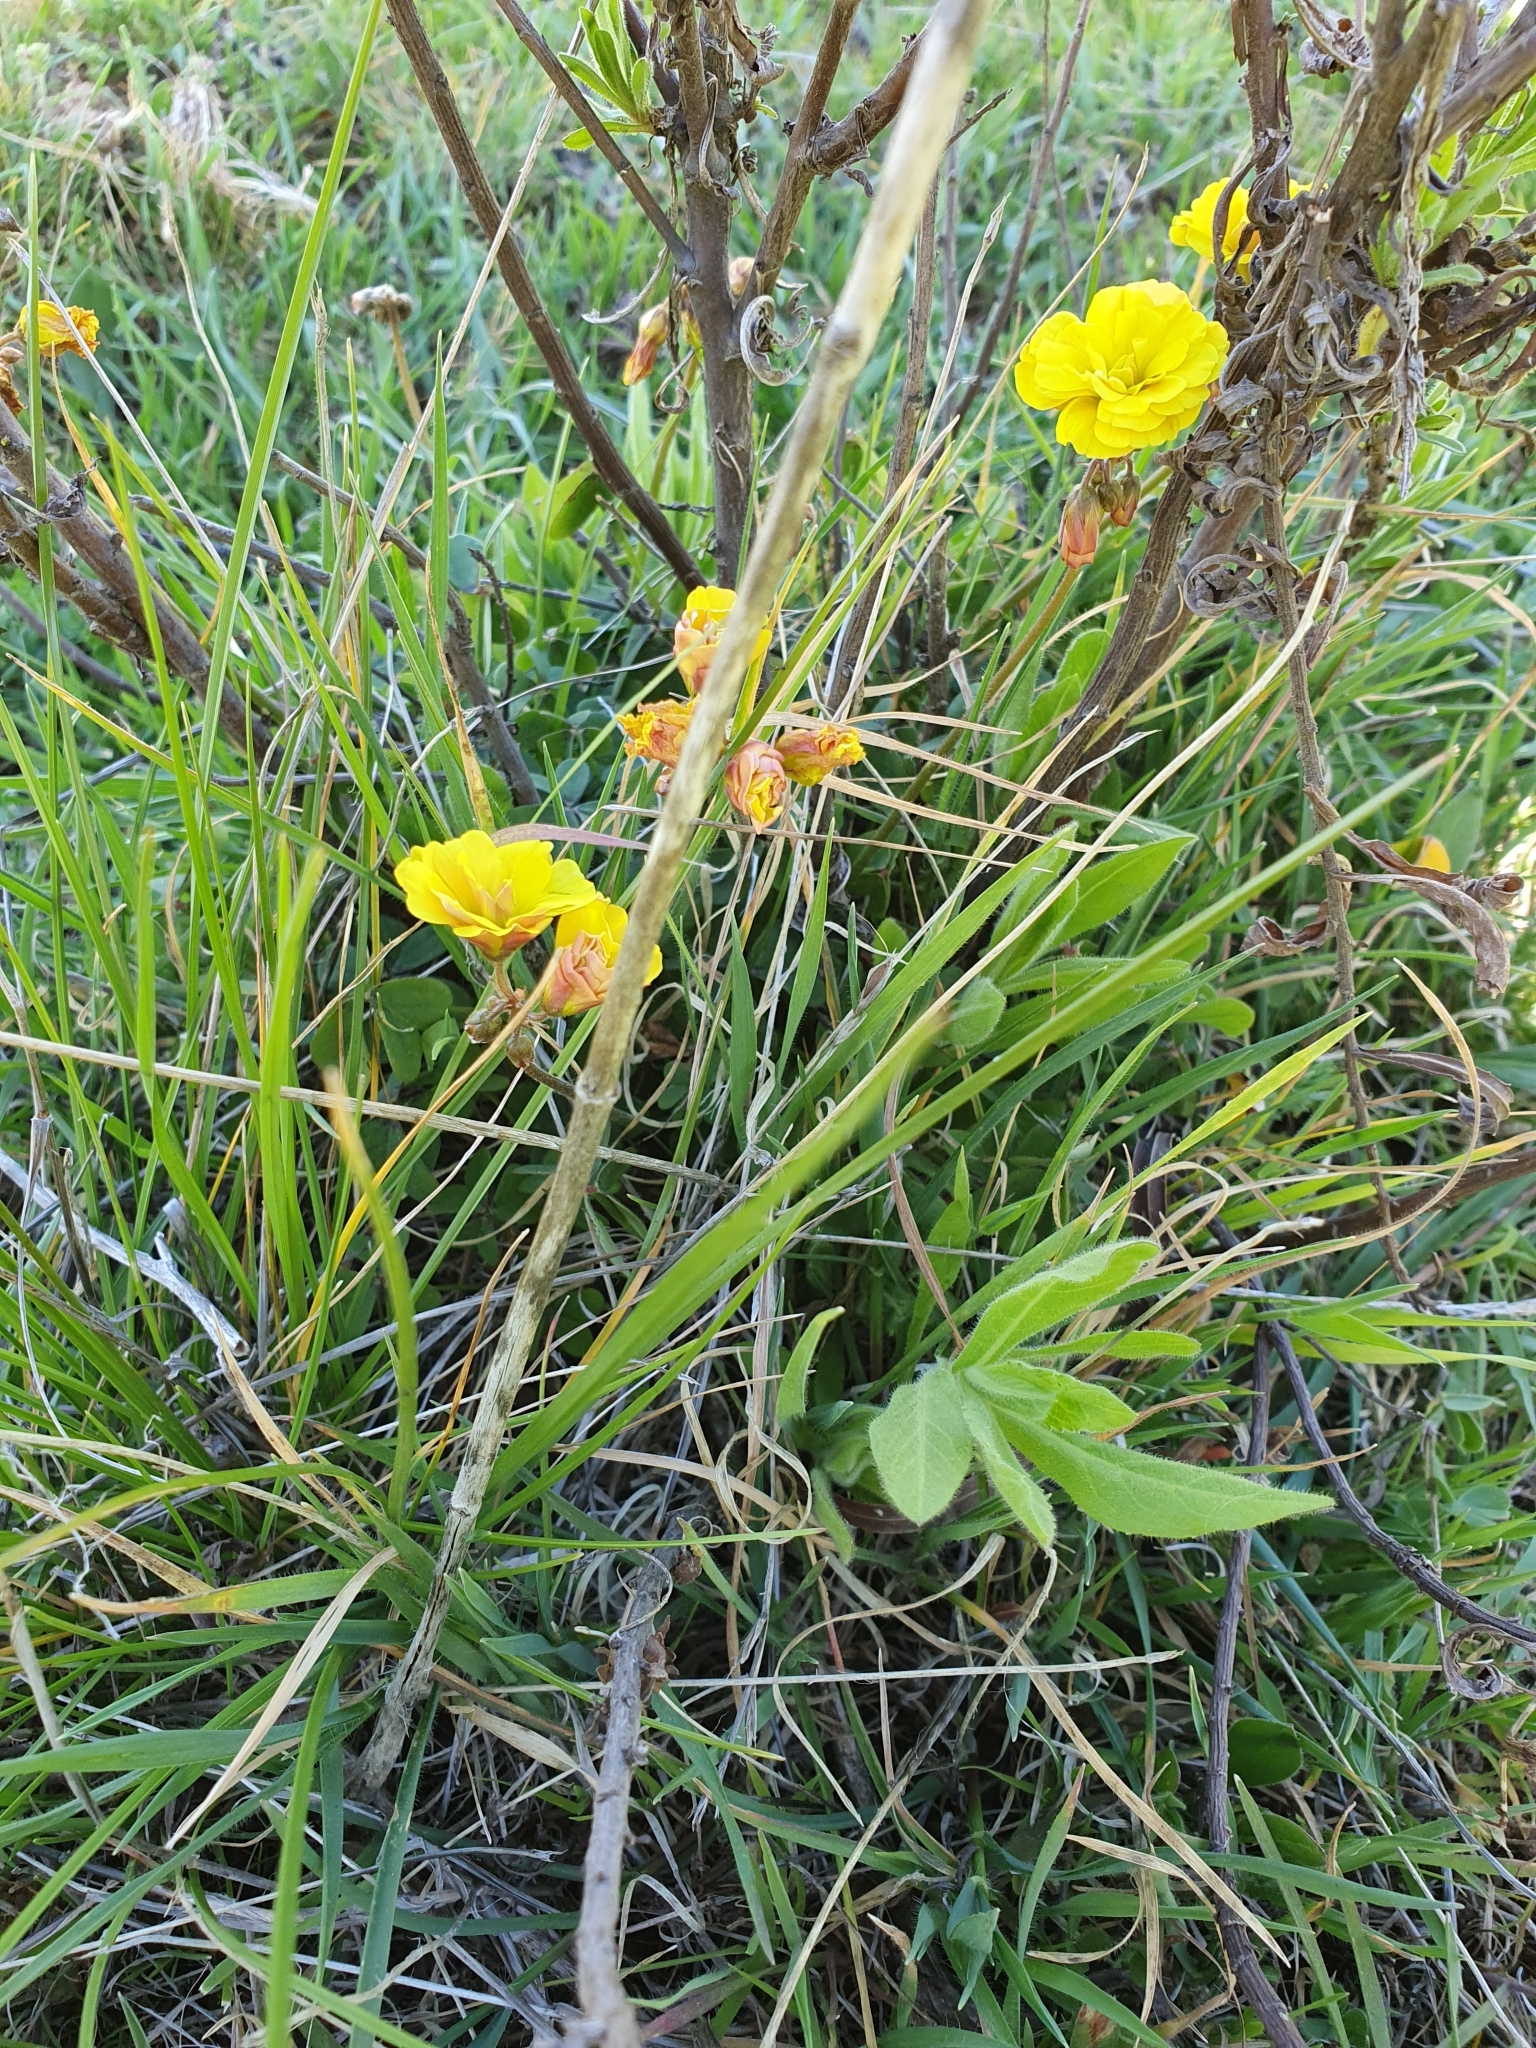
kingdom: Plantae
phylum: Tracheophyta
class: Magnoliopsida
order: Oxalidales
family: Oxalidaceae
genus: Oxalis
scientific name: Oxalis pes-caprae
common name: Bermuda-buttercup
